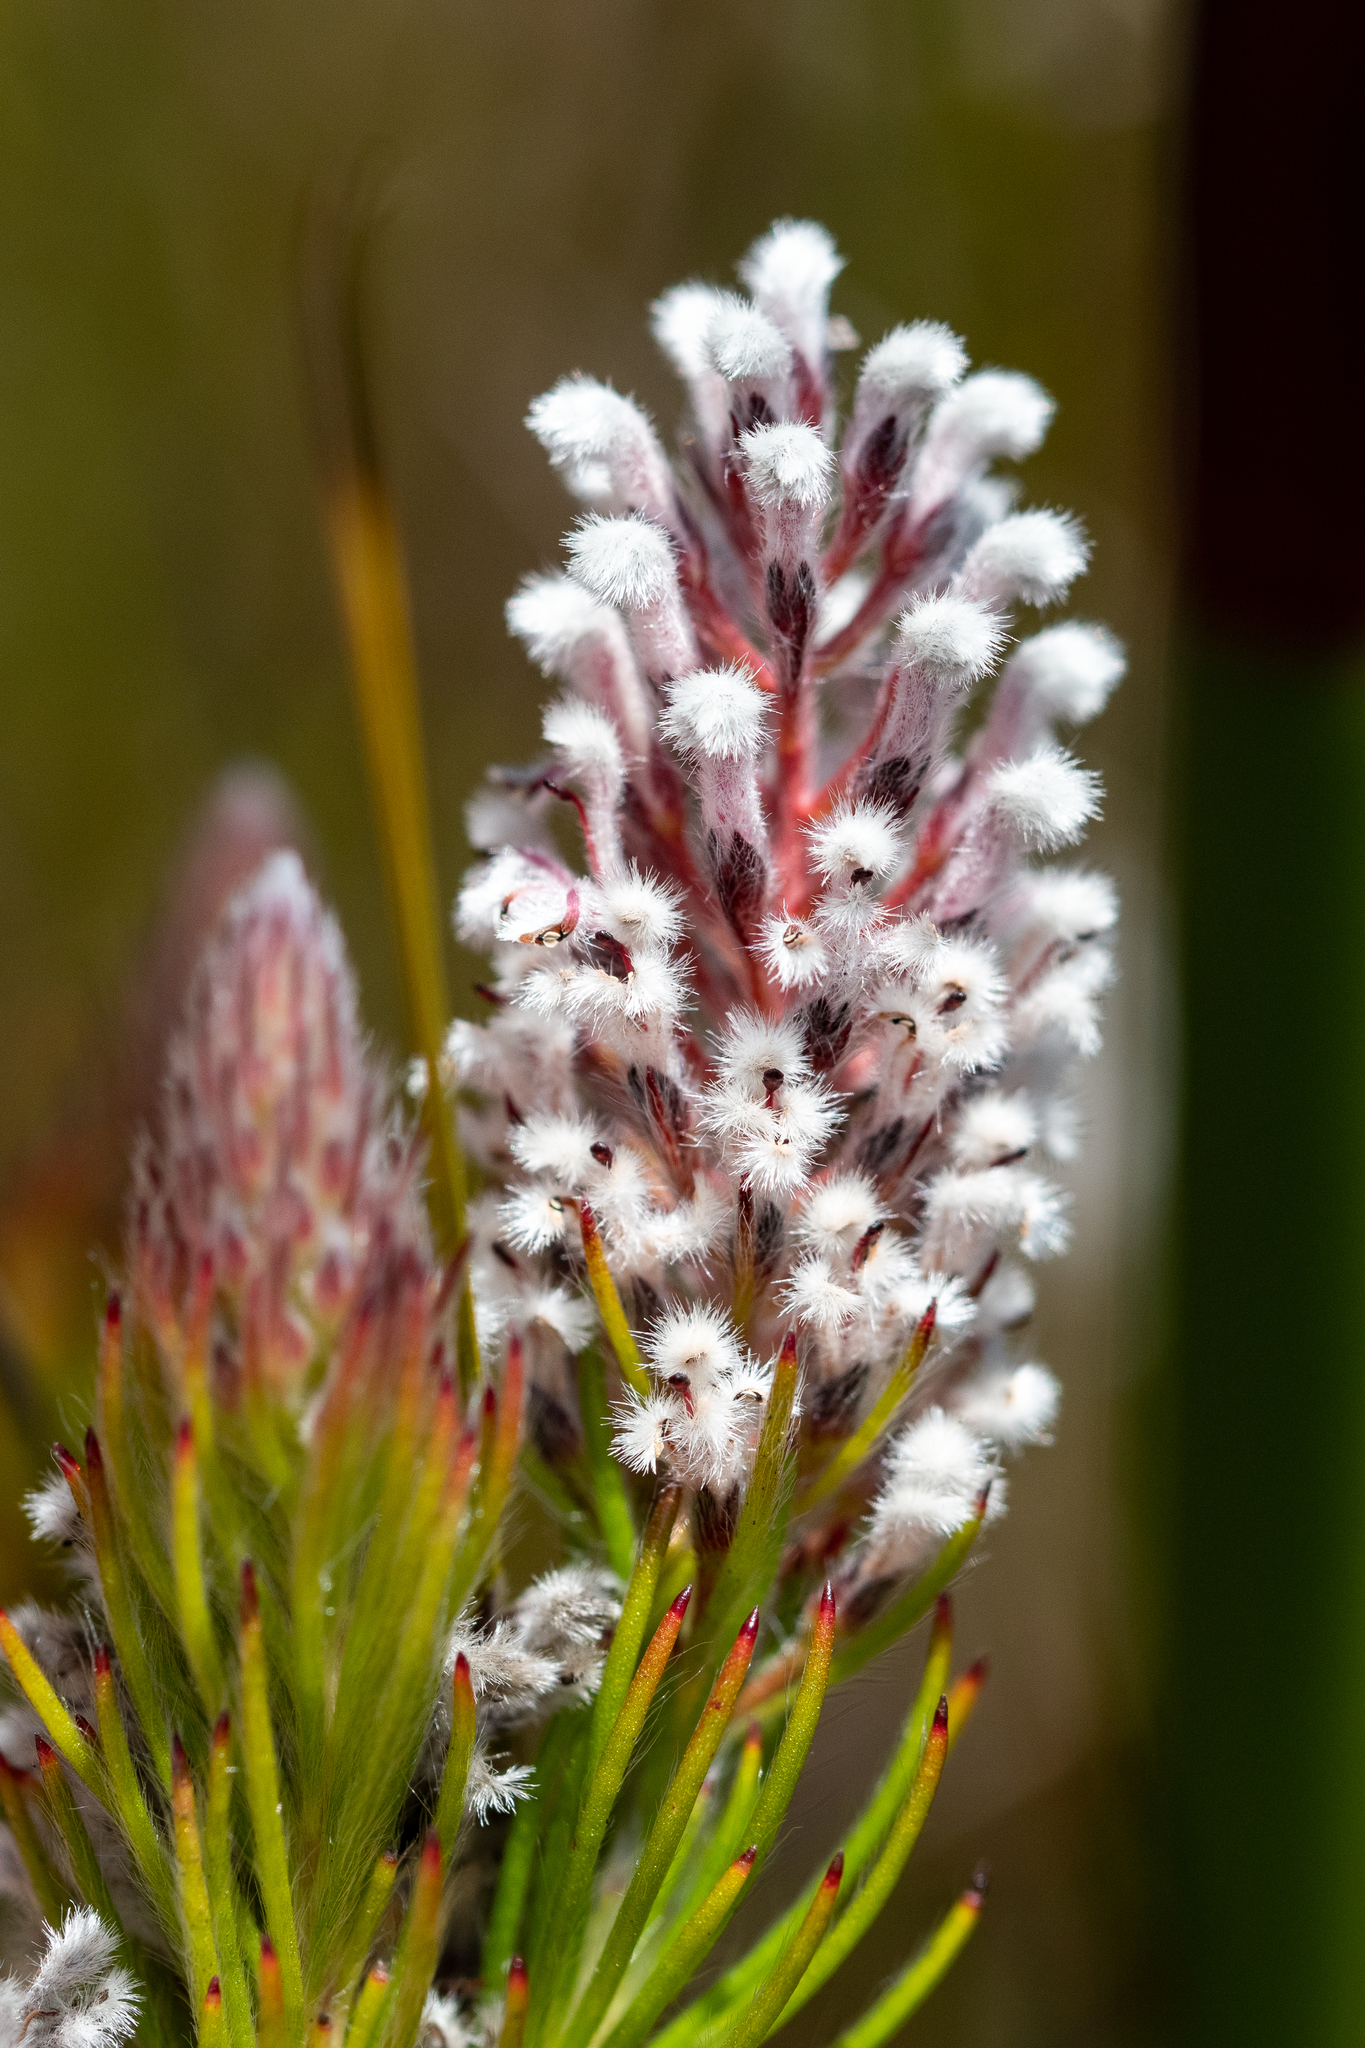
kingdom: Plantae
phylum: Tracheophyta
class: Magnoliopsida
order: Proteales
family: Proteaceae
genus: Spatalla
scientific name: Spatalla mollis
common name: Woolly spoon
